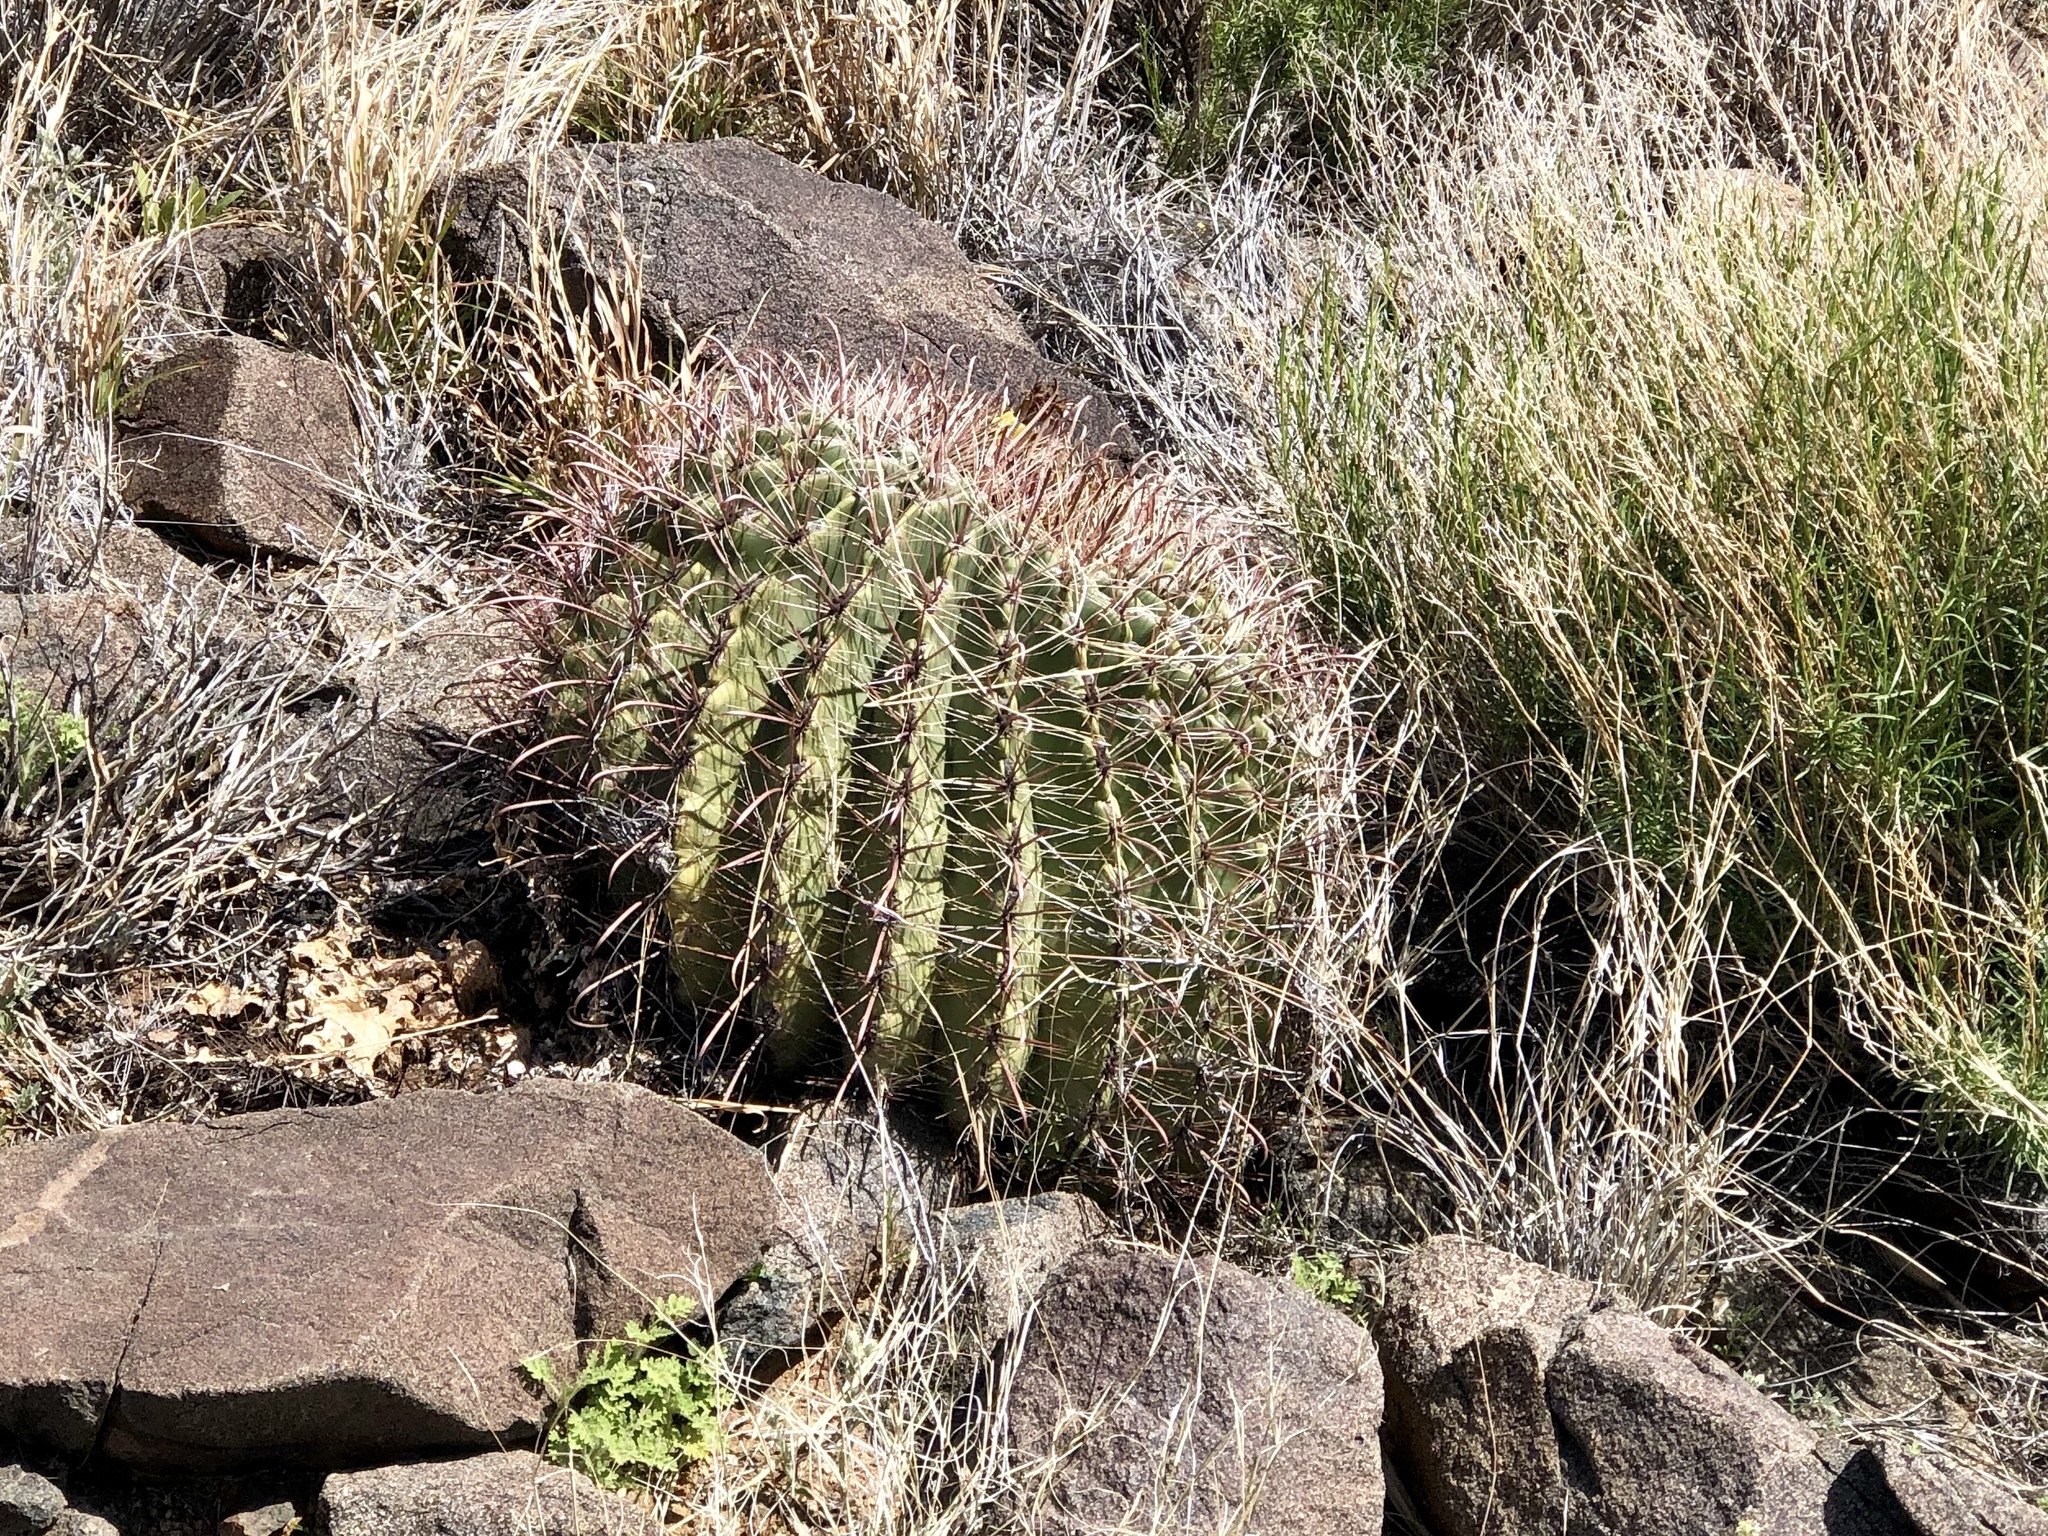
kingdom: Plantae
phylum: Tracheophyta
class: Magnoliopsida
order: Caryophyllales
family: Cactaceae
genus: Ferocactus
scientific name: Ferocactus wislizeni
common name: Candy barrel cactus
